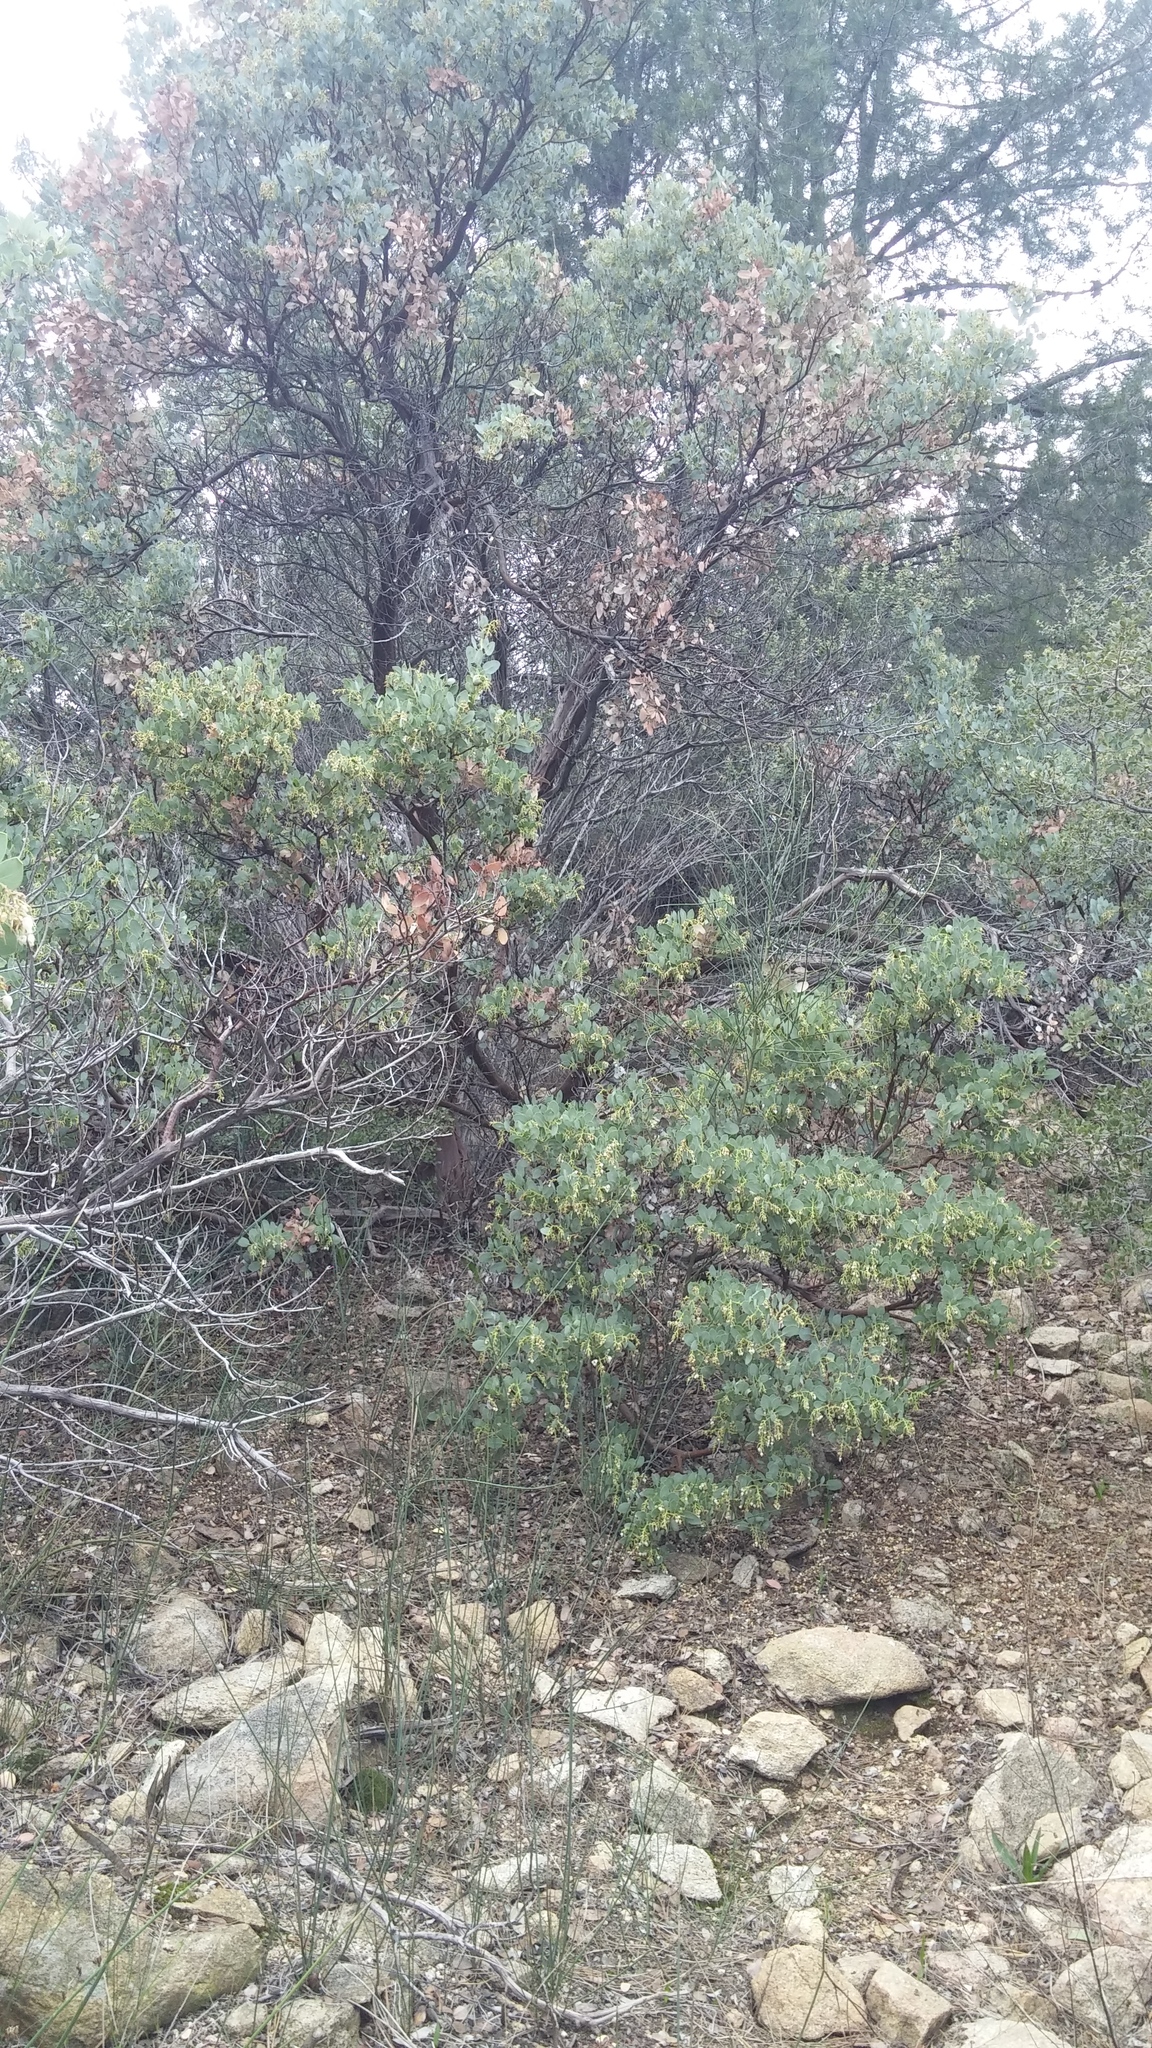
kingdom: Plantae
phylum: Tracheophyta
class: Magnoliopsida
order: Ericales
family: Ericaceae
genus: Arctostaphylos
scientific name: Arctostaphylos glauca
